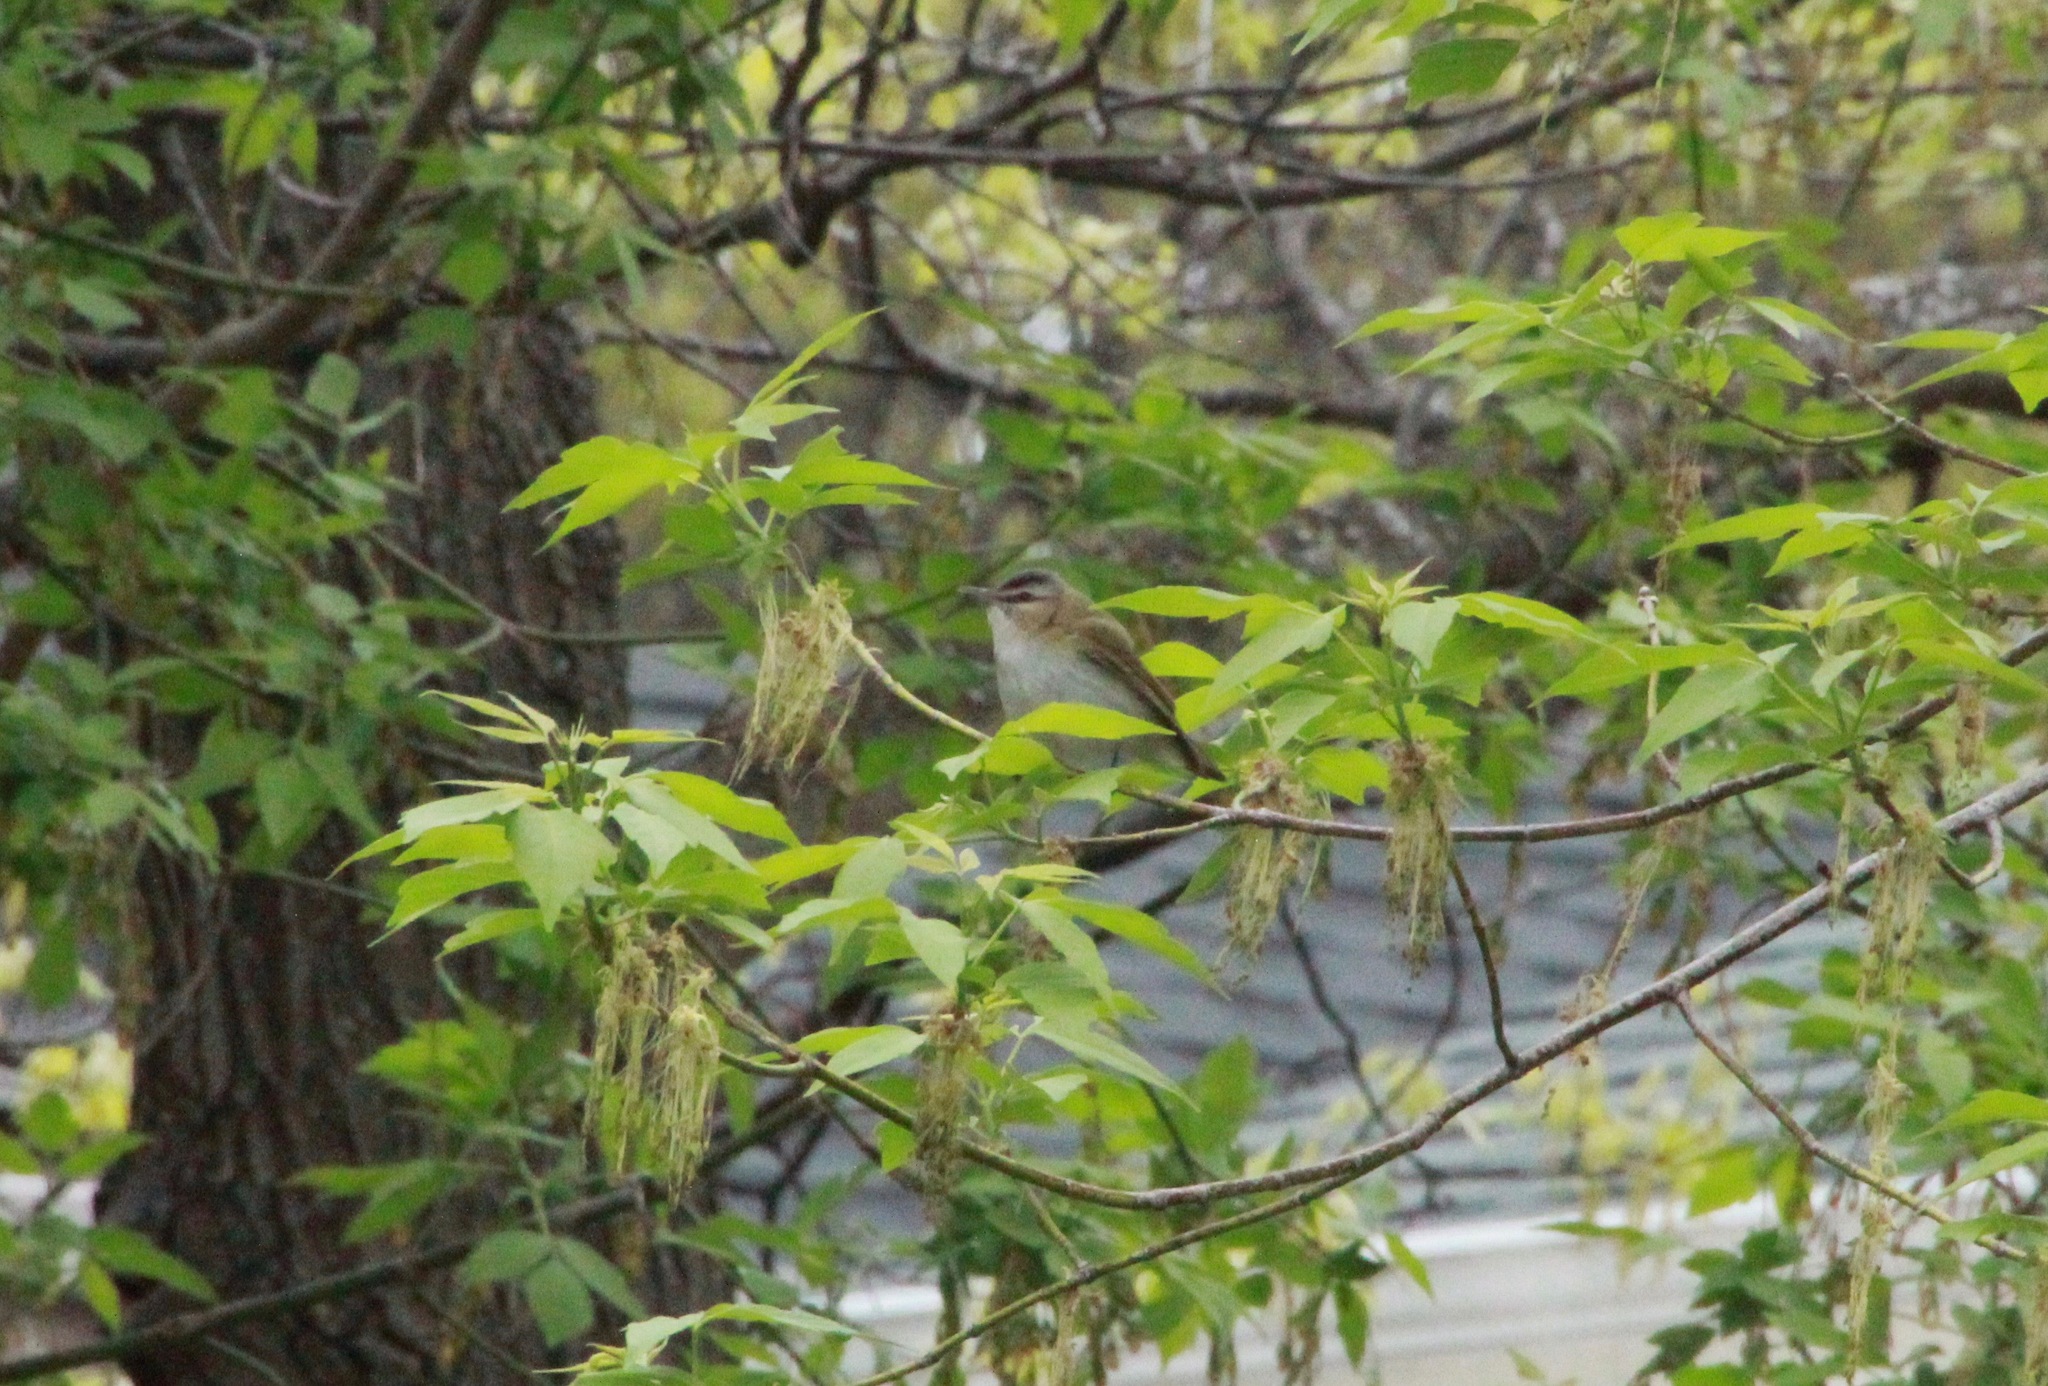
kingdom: Animalia
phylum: Chordata
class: Aves
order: Passeriformes
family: Vireonidae
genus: Vireo
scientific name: Vireo olivaceus
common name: Red-eyed vireo
